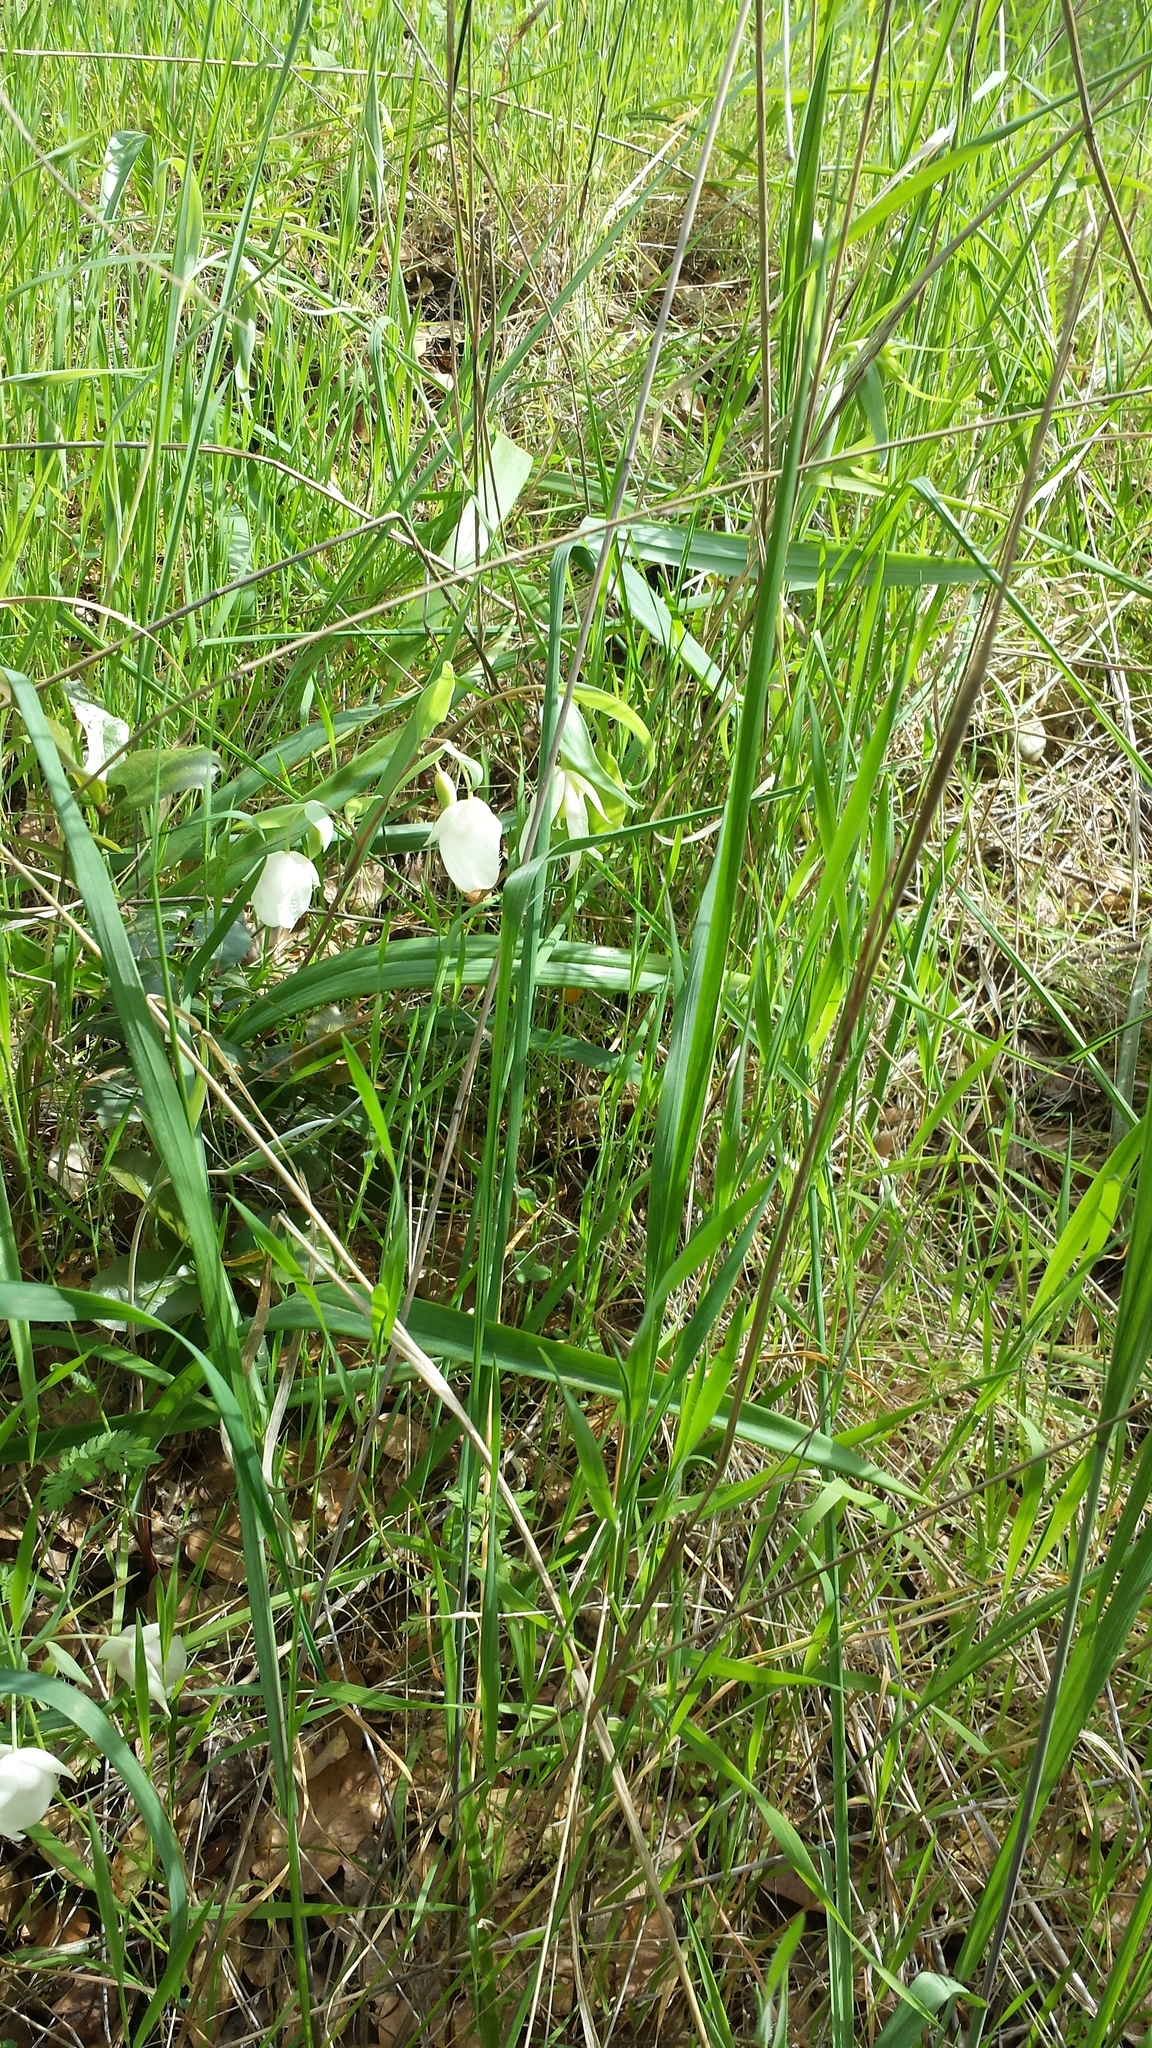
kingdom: Plantae
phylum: Tracheophyta
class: Liliopsida
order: Liliales
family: Liliaceae
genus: Calochortus
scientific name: Calochortus albus
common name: Fairy-lantern
